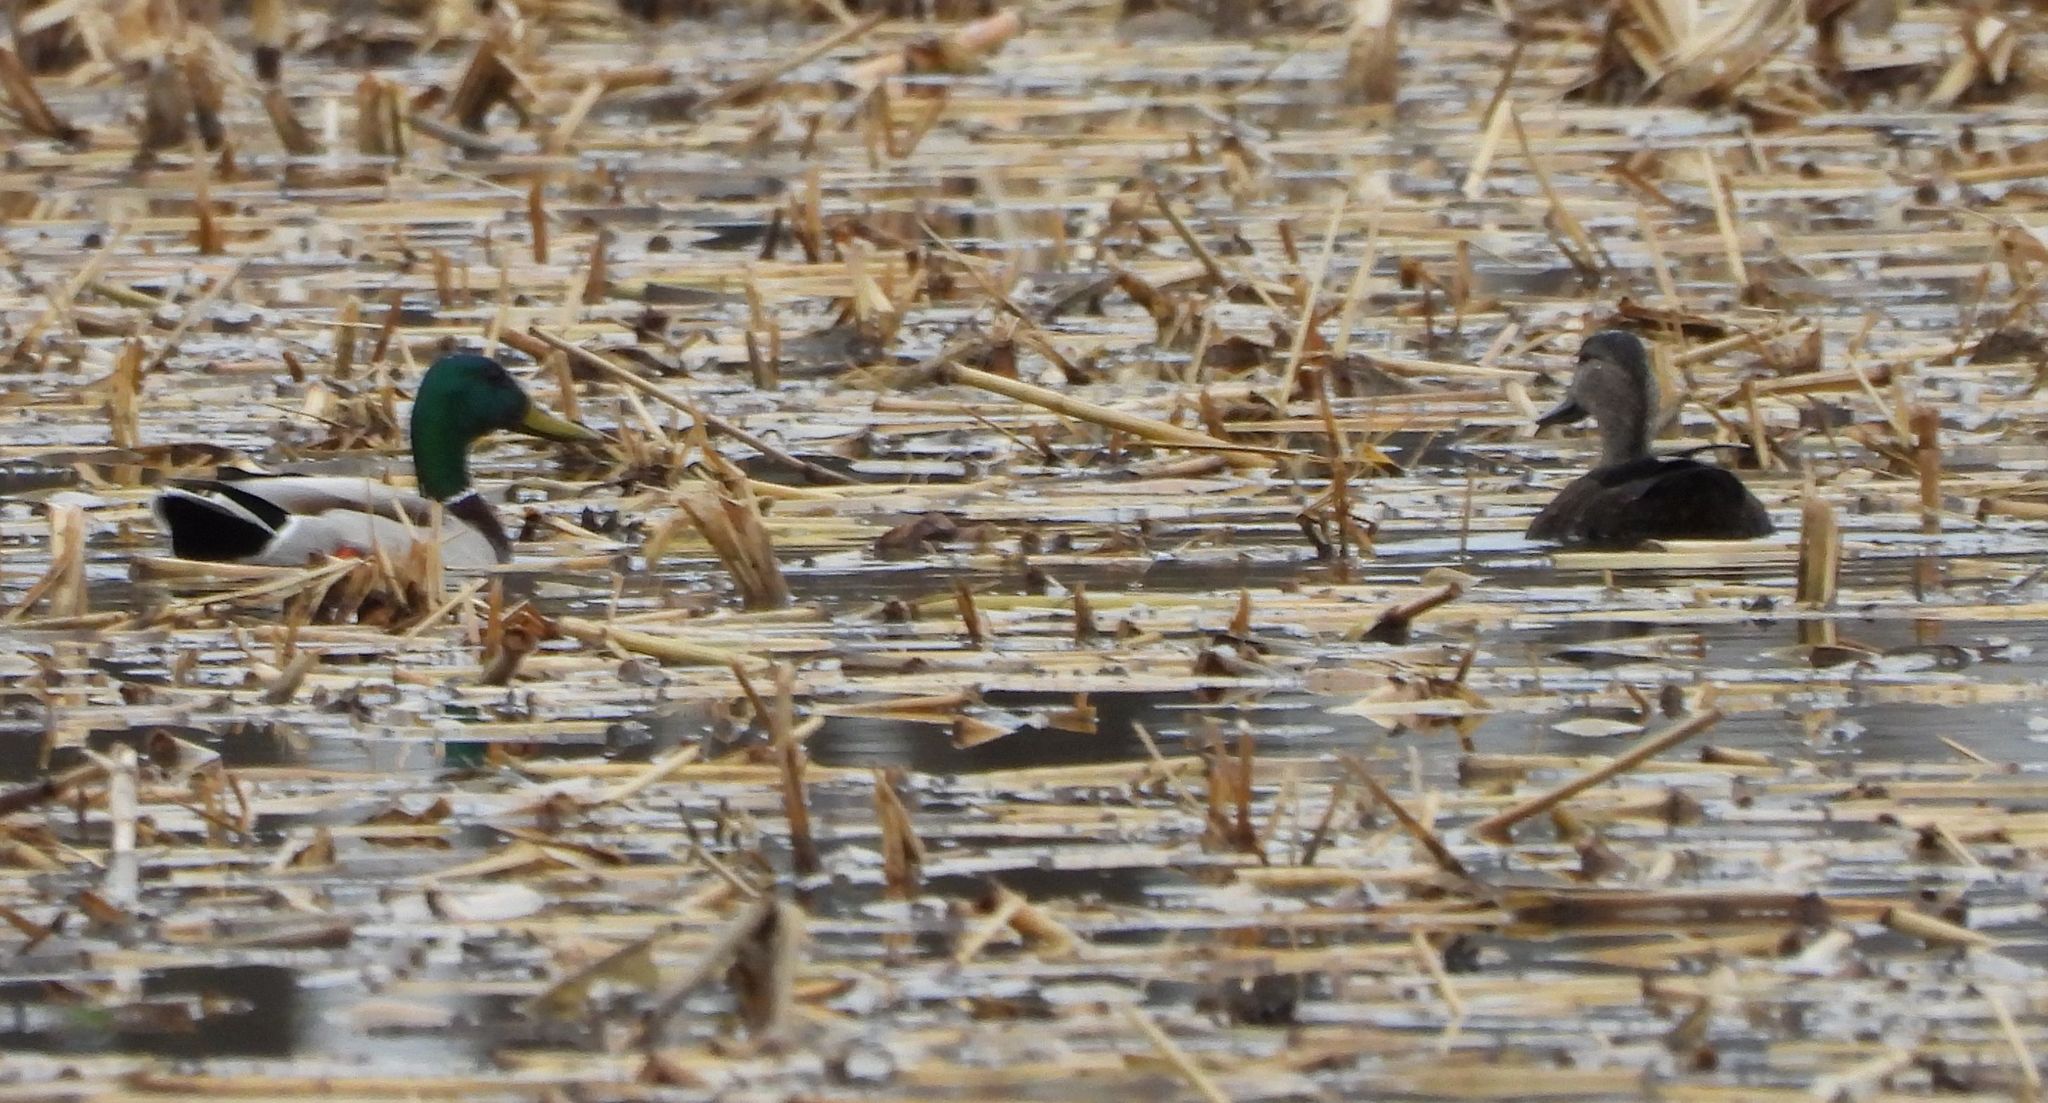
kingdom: Animalia
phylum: Chordata
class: Aves
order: Anseriformes
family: Anatidae
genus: Anas
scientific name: Anas platyrhynchos
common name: Mallard
